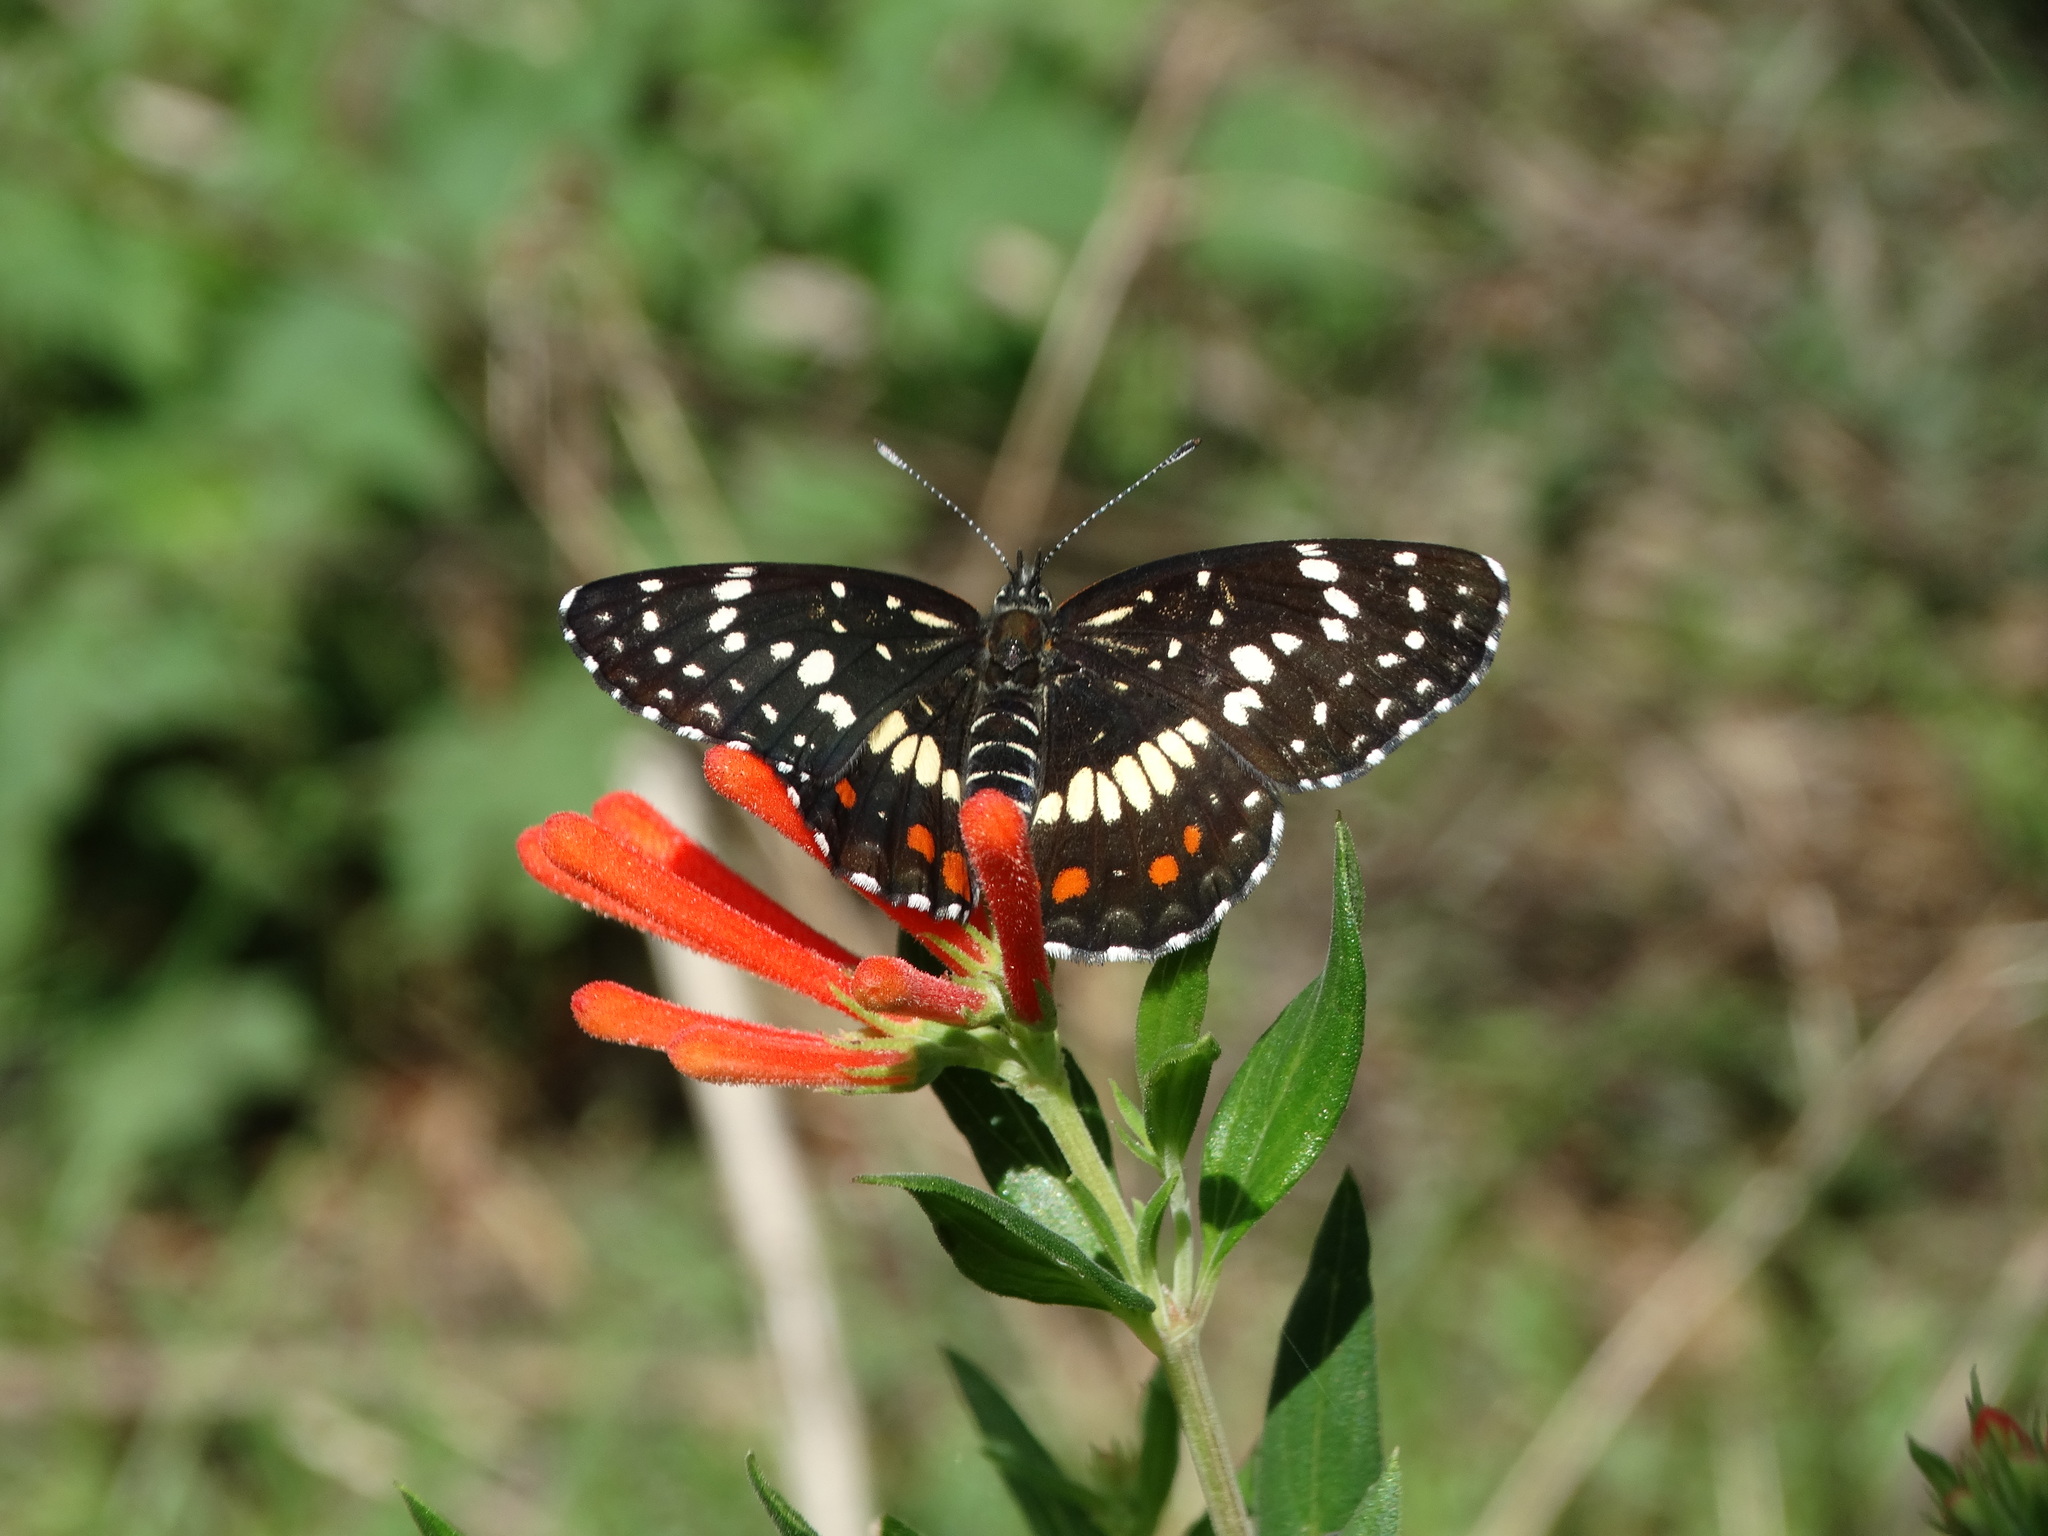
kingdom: Animalia
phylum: Arthropoda
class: Insecta
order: Lepidoptera
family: Nymphalidae
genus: Chlosyne
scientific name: Chlosyne marina
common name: Red-spotted patch
